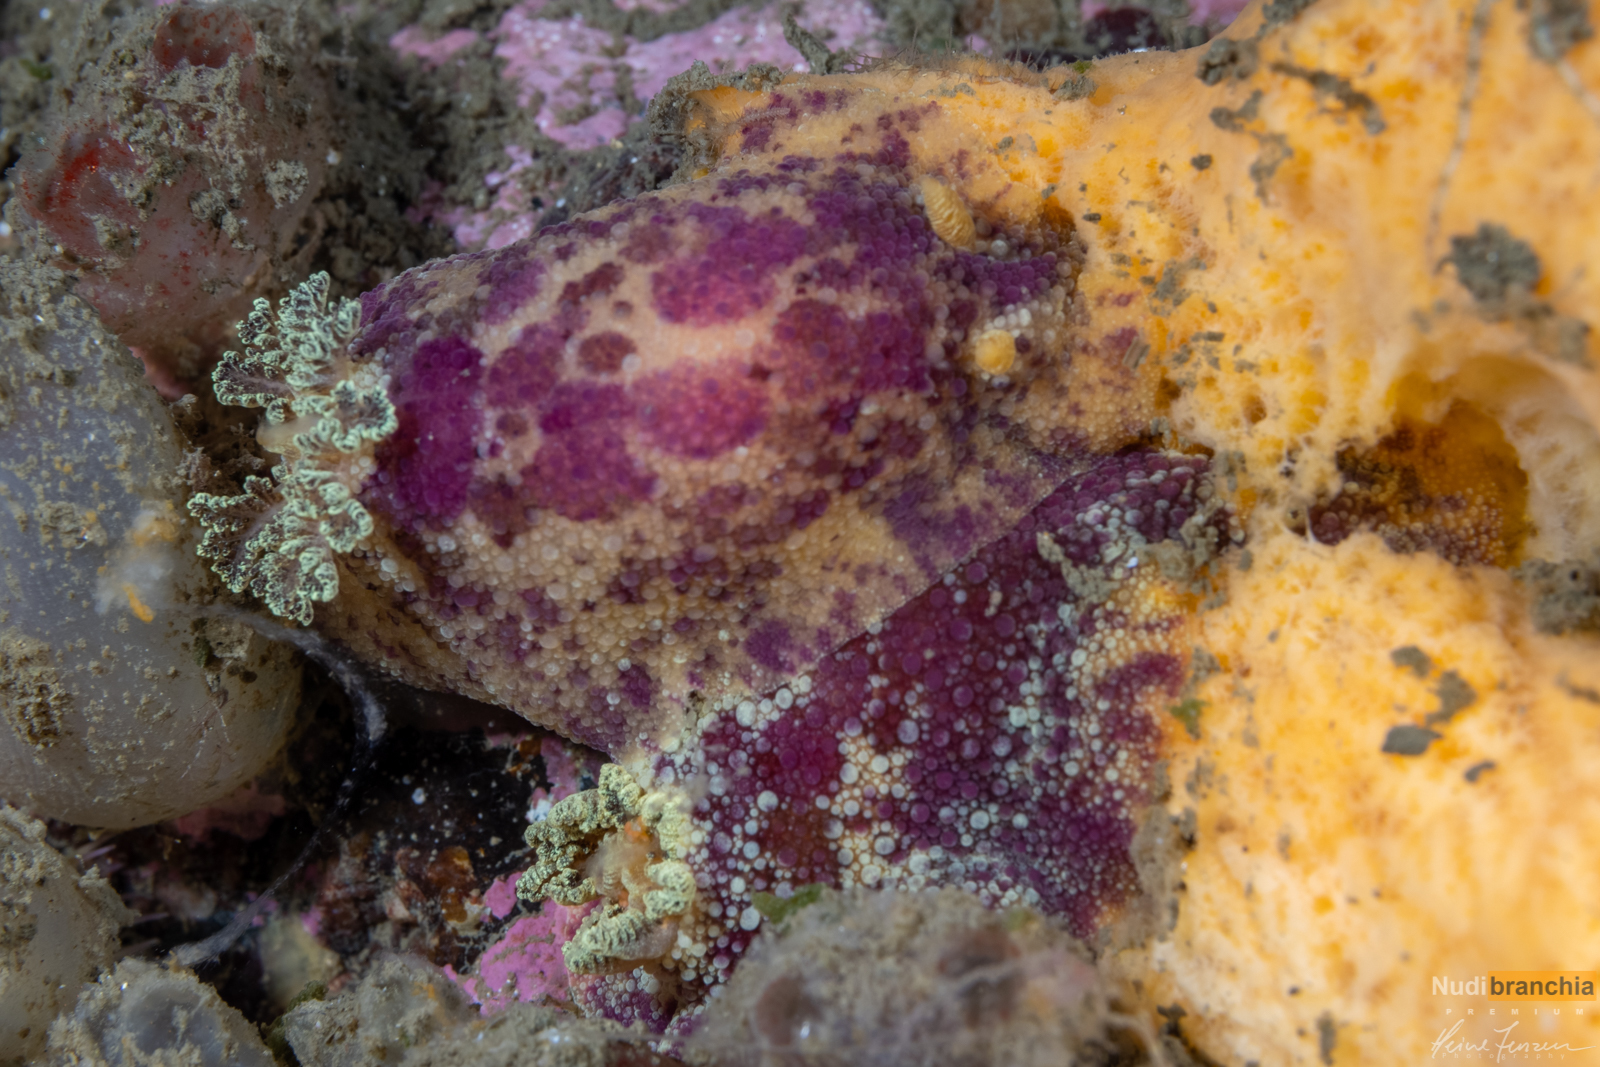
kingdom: Animalia
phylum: Mollusca
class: Gastropoda
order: Nudibranchia
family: Dorididae
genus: Doris
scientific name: Doris pseudoargus
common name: Sea lemon
